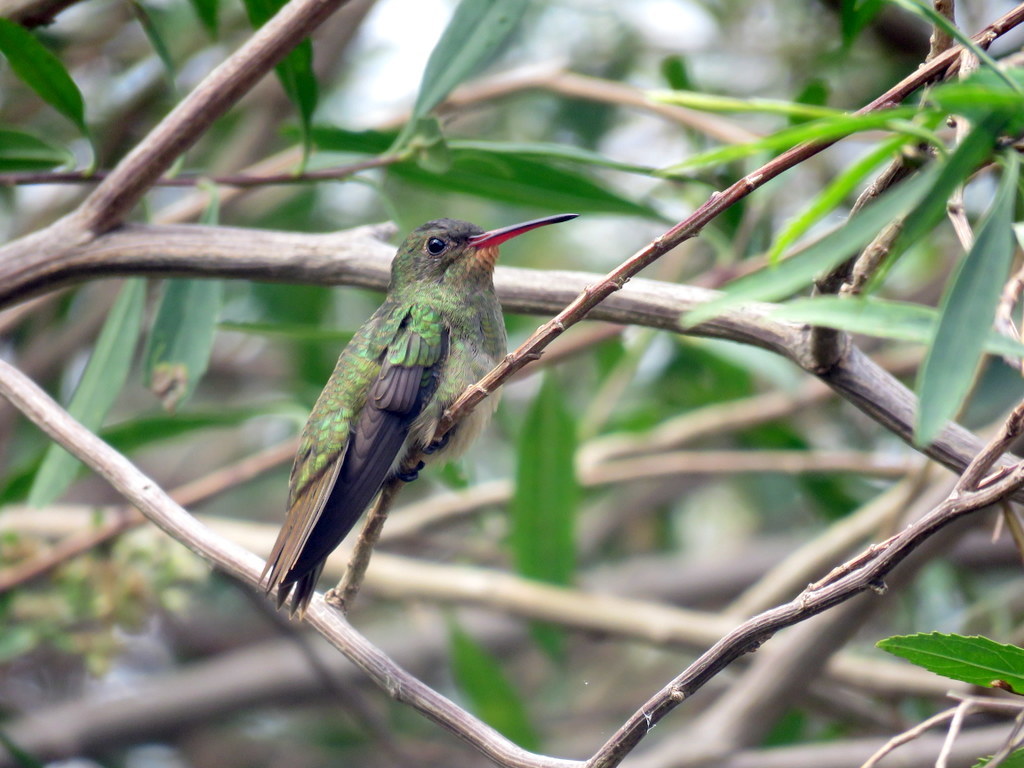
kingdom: Animalia
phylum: Chordata
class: Aves
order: Apodiformes
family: Trochilidae
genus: Hylocharis
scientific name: Hylocharis chrysura
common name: Gilded sapphire
